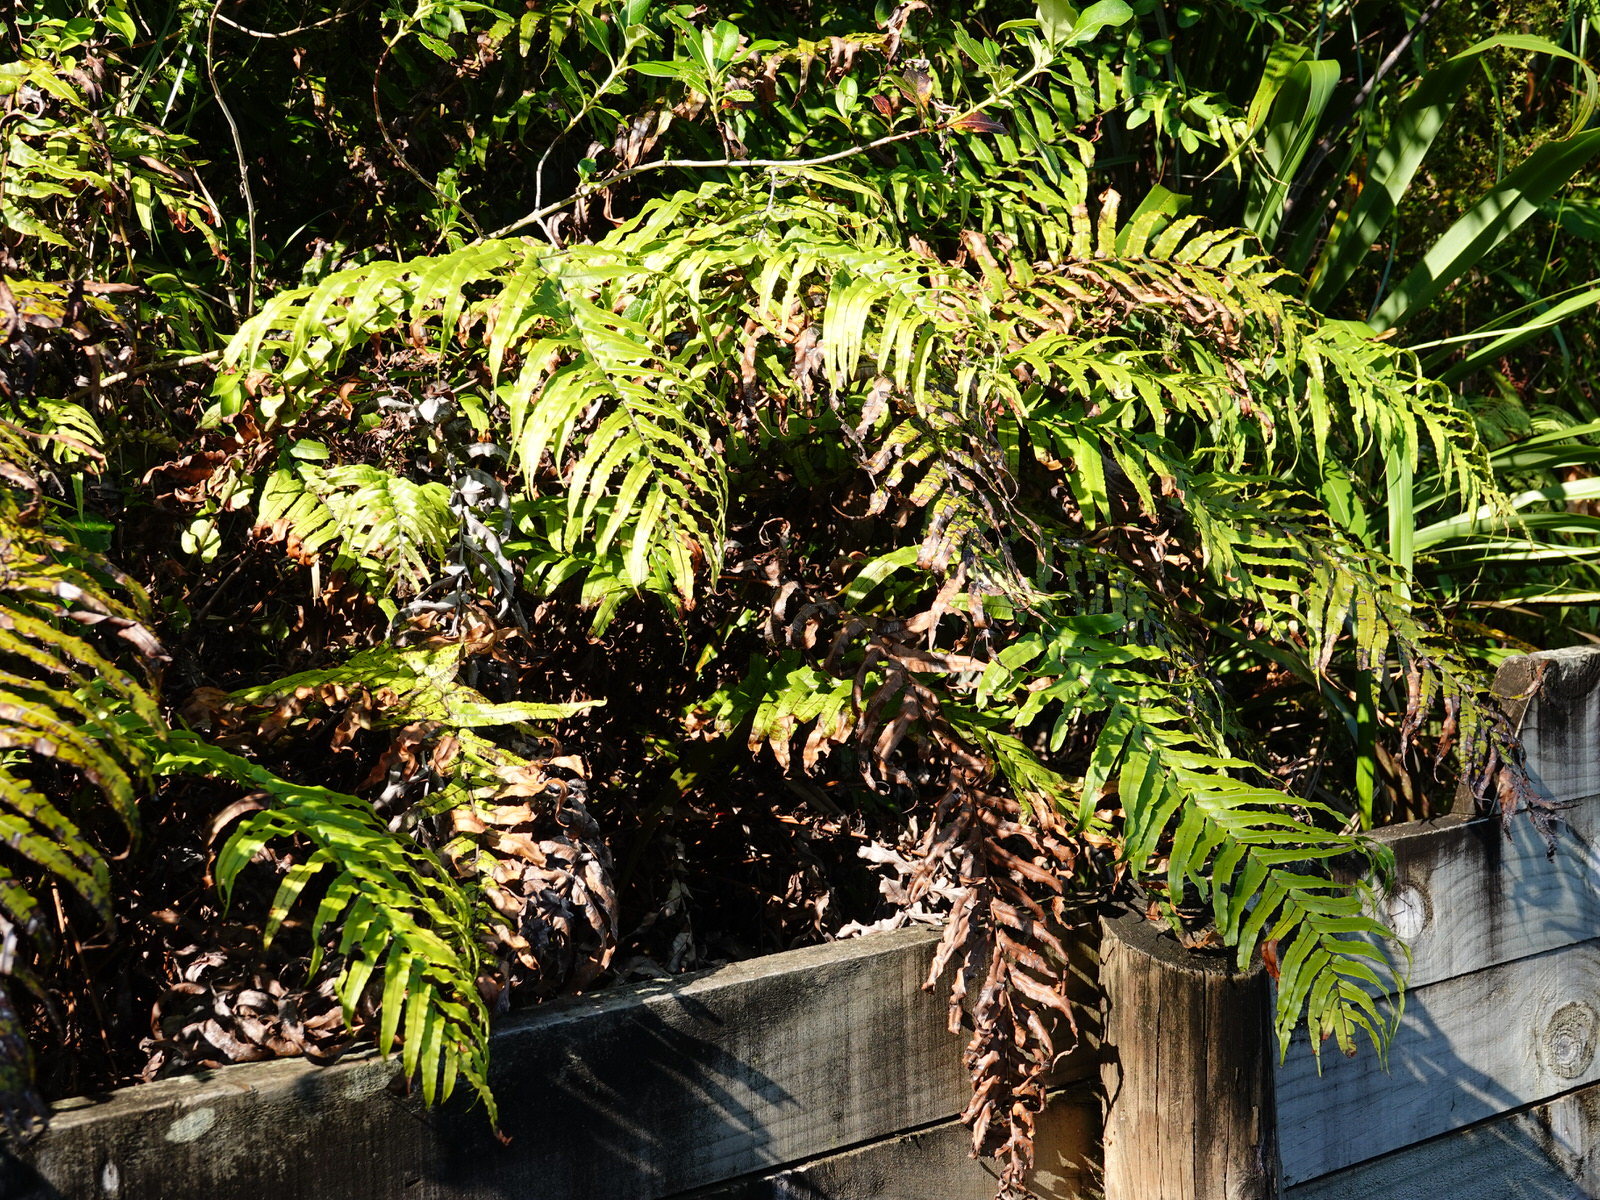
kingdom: Plantae
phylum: Tracheophyta
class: Polypodiopsida
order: Polypodiales
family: Blechnaceae
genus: Parablechnum
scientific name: Parablechnum novae-zelandiae
